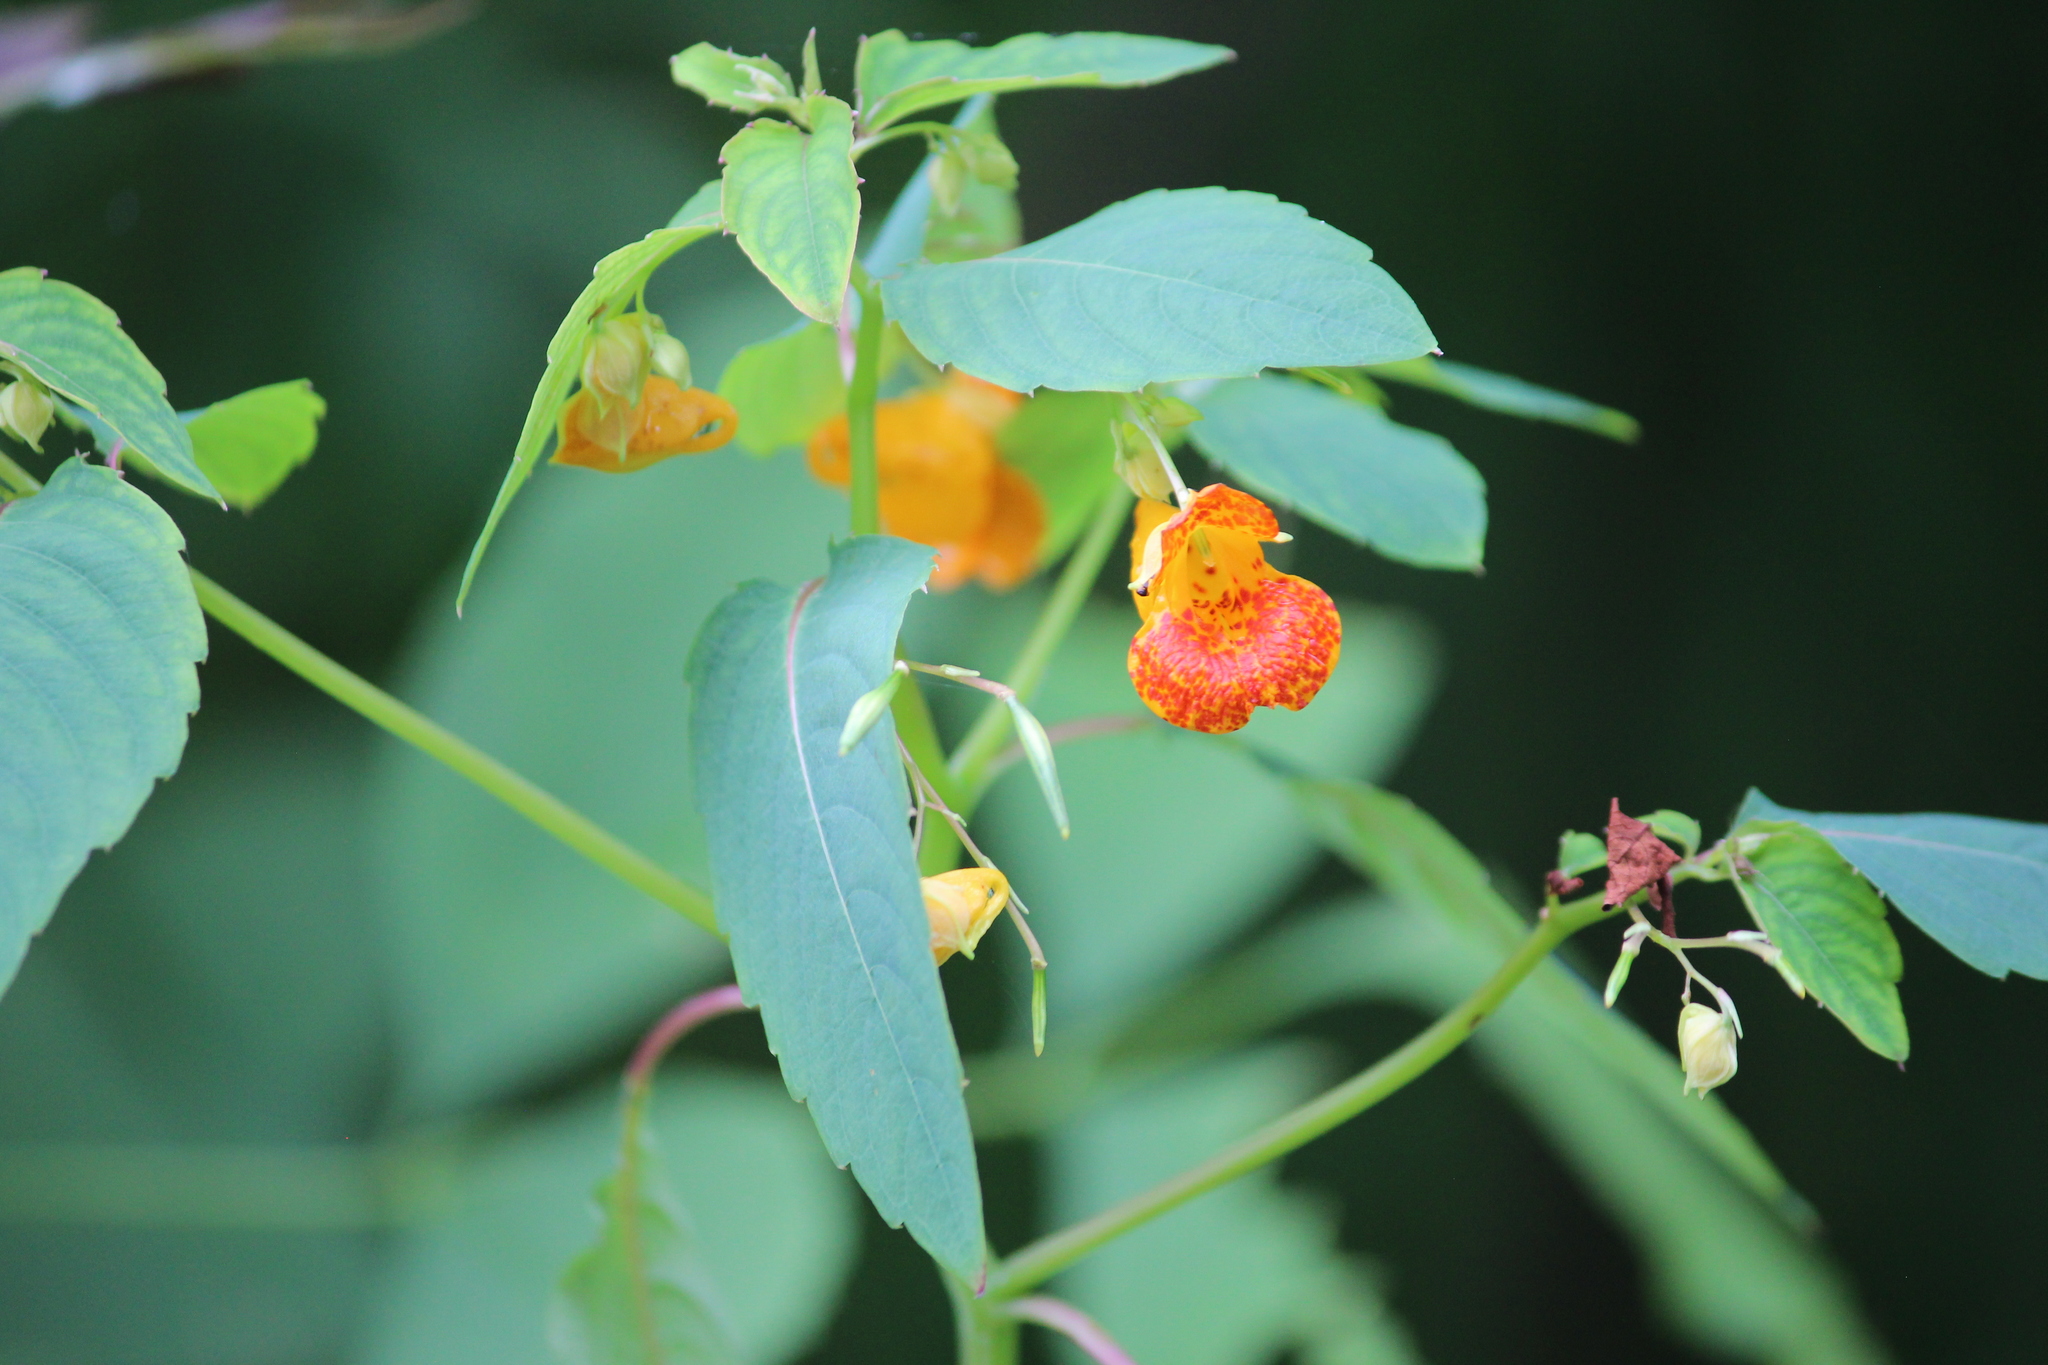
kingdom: Plantae
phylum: Tracheophyta
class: Magnoliopsida
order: Ericales
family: Balsaminaceae
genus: Impatiens
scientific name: Impatiens capensis
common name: Orange balsam
